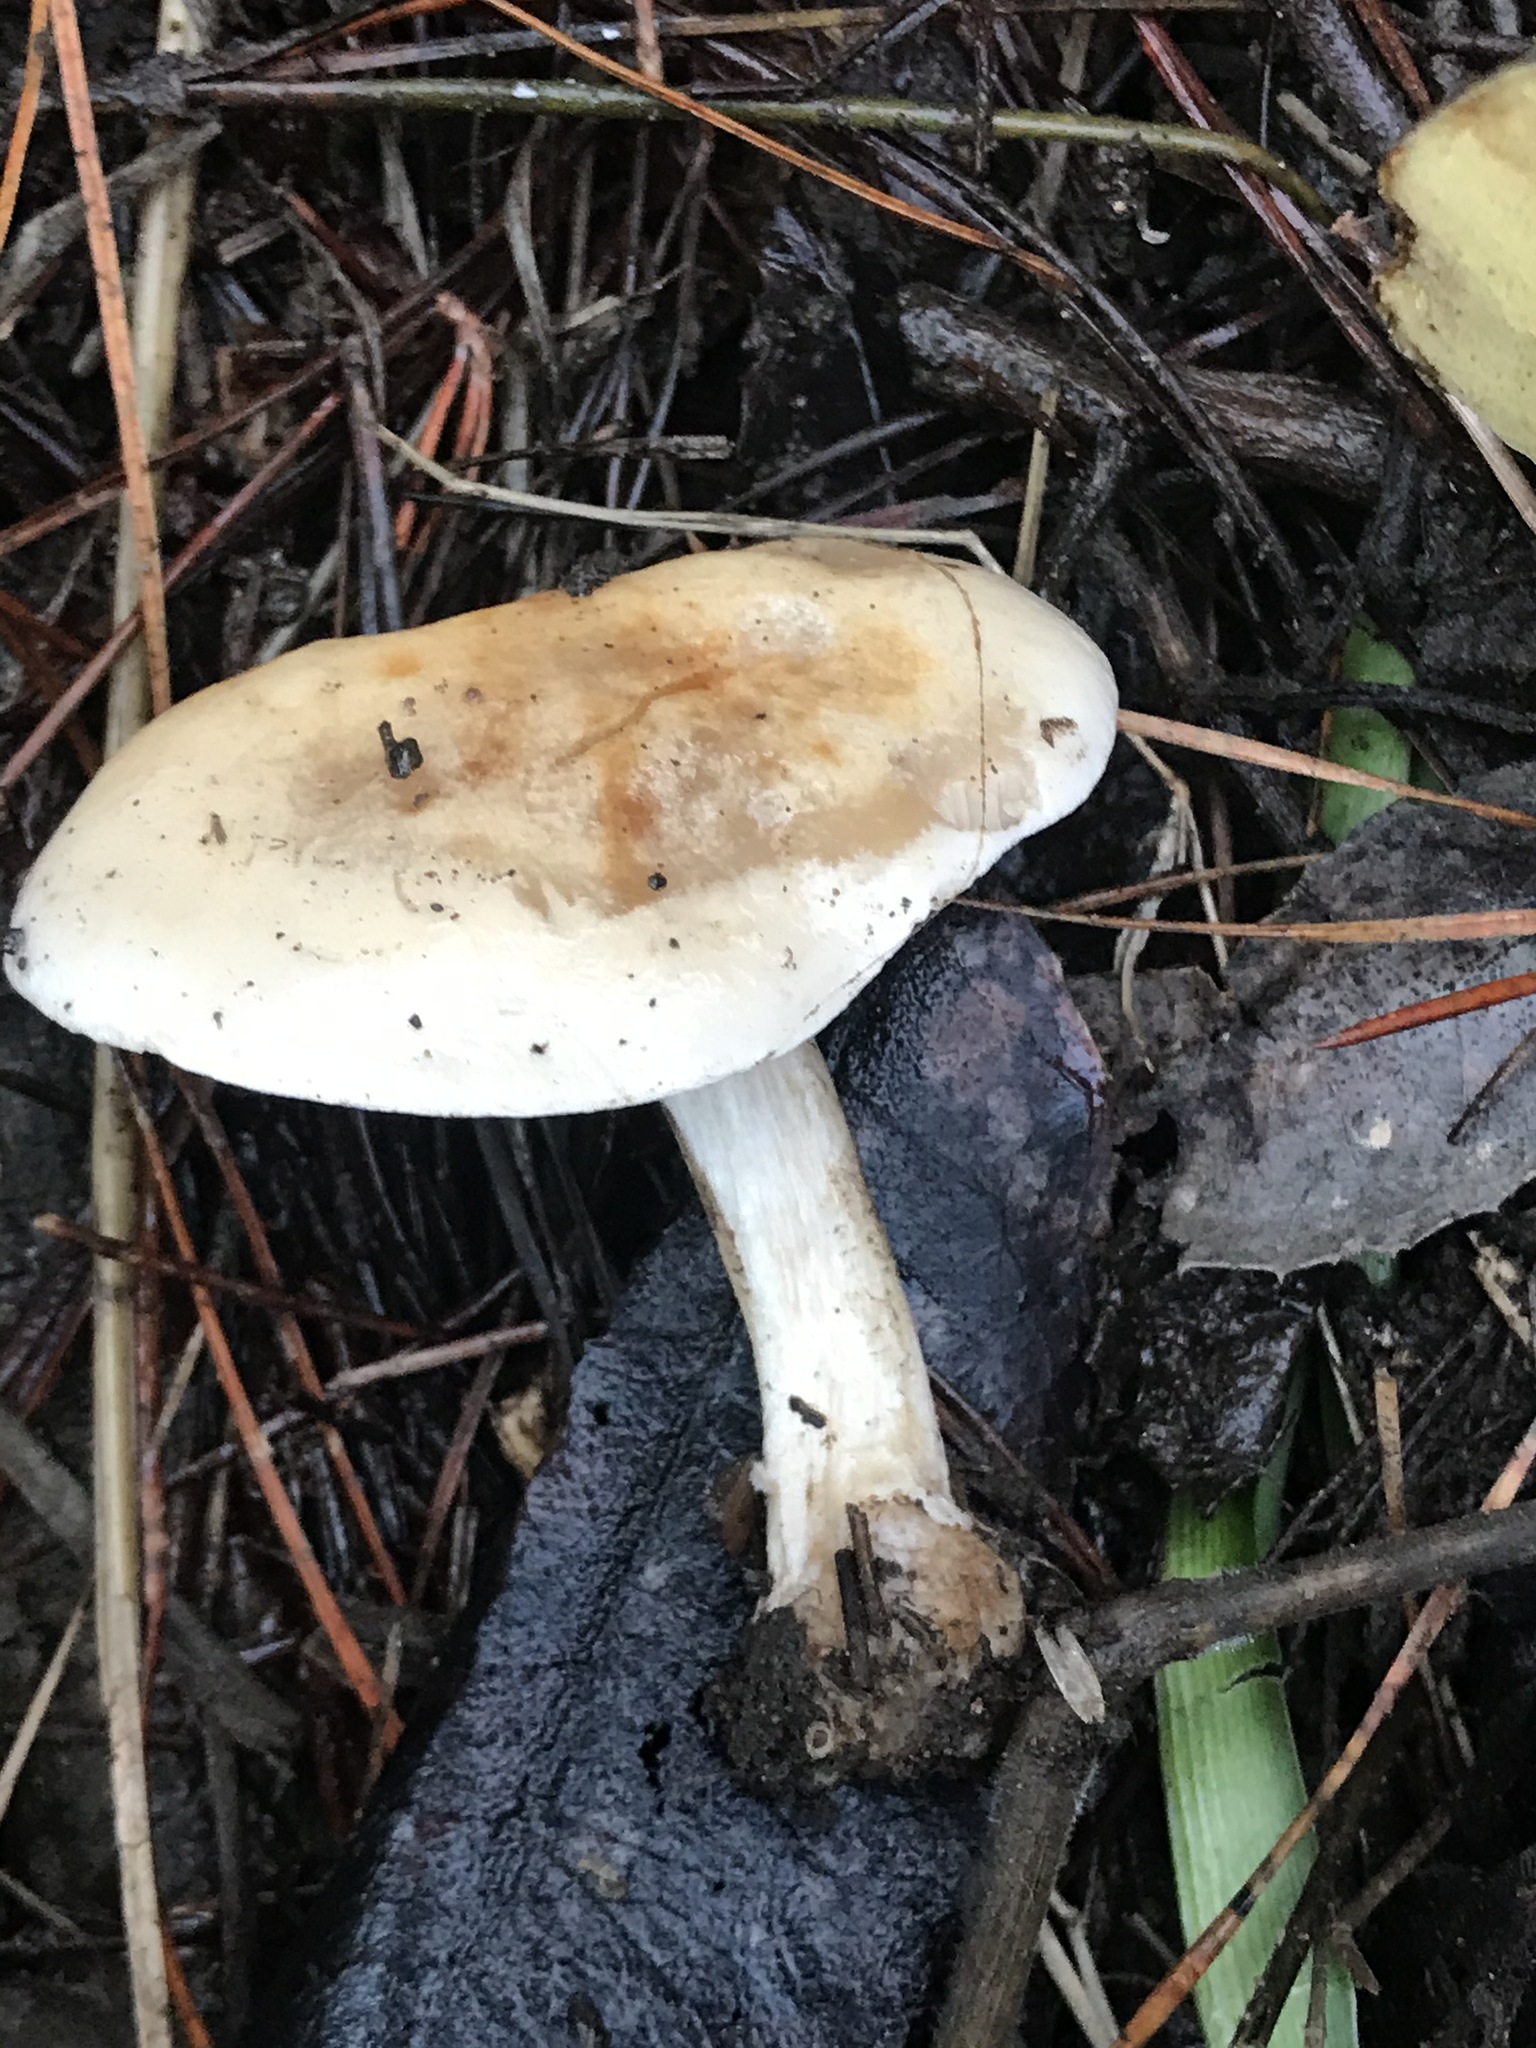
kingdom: Fungi
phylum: Basidiomycota
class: Agaricomycetes
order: Agaricales
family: Hymenogastraceae
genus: Hebeloma
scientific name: Hebeloma crustuliniforme
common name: Poison pie
